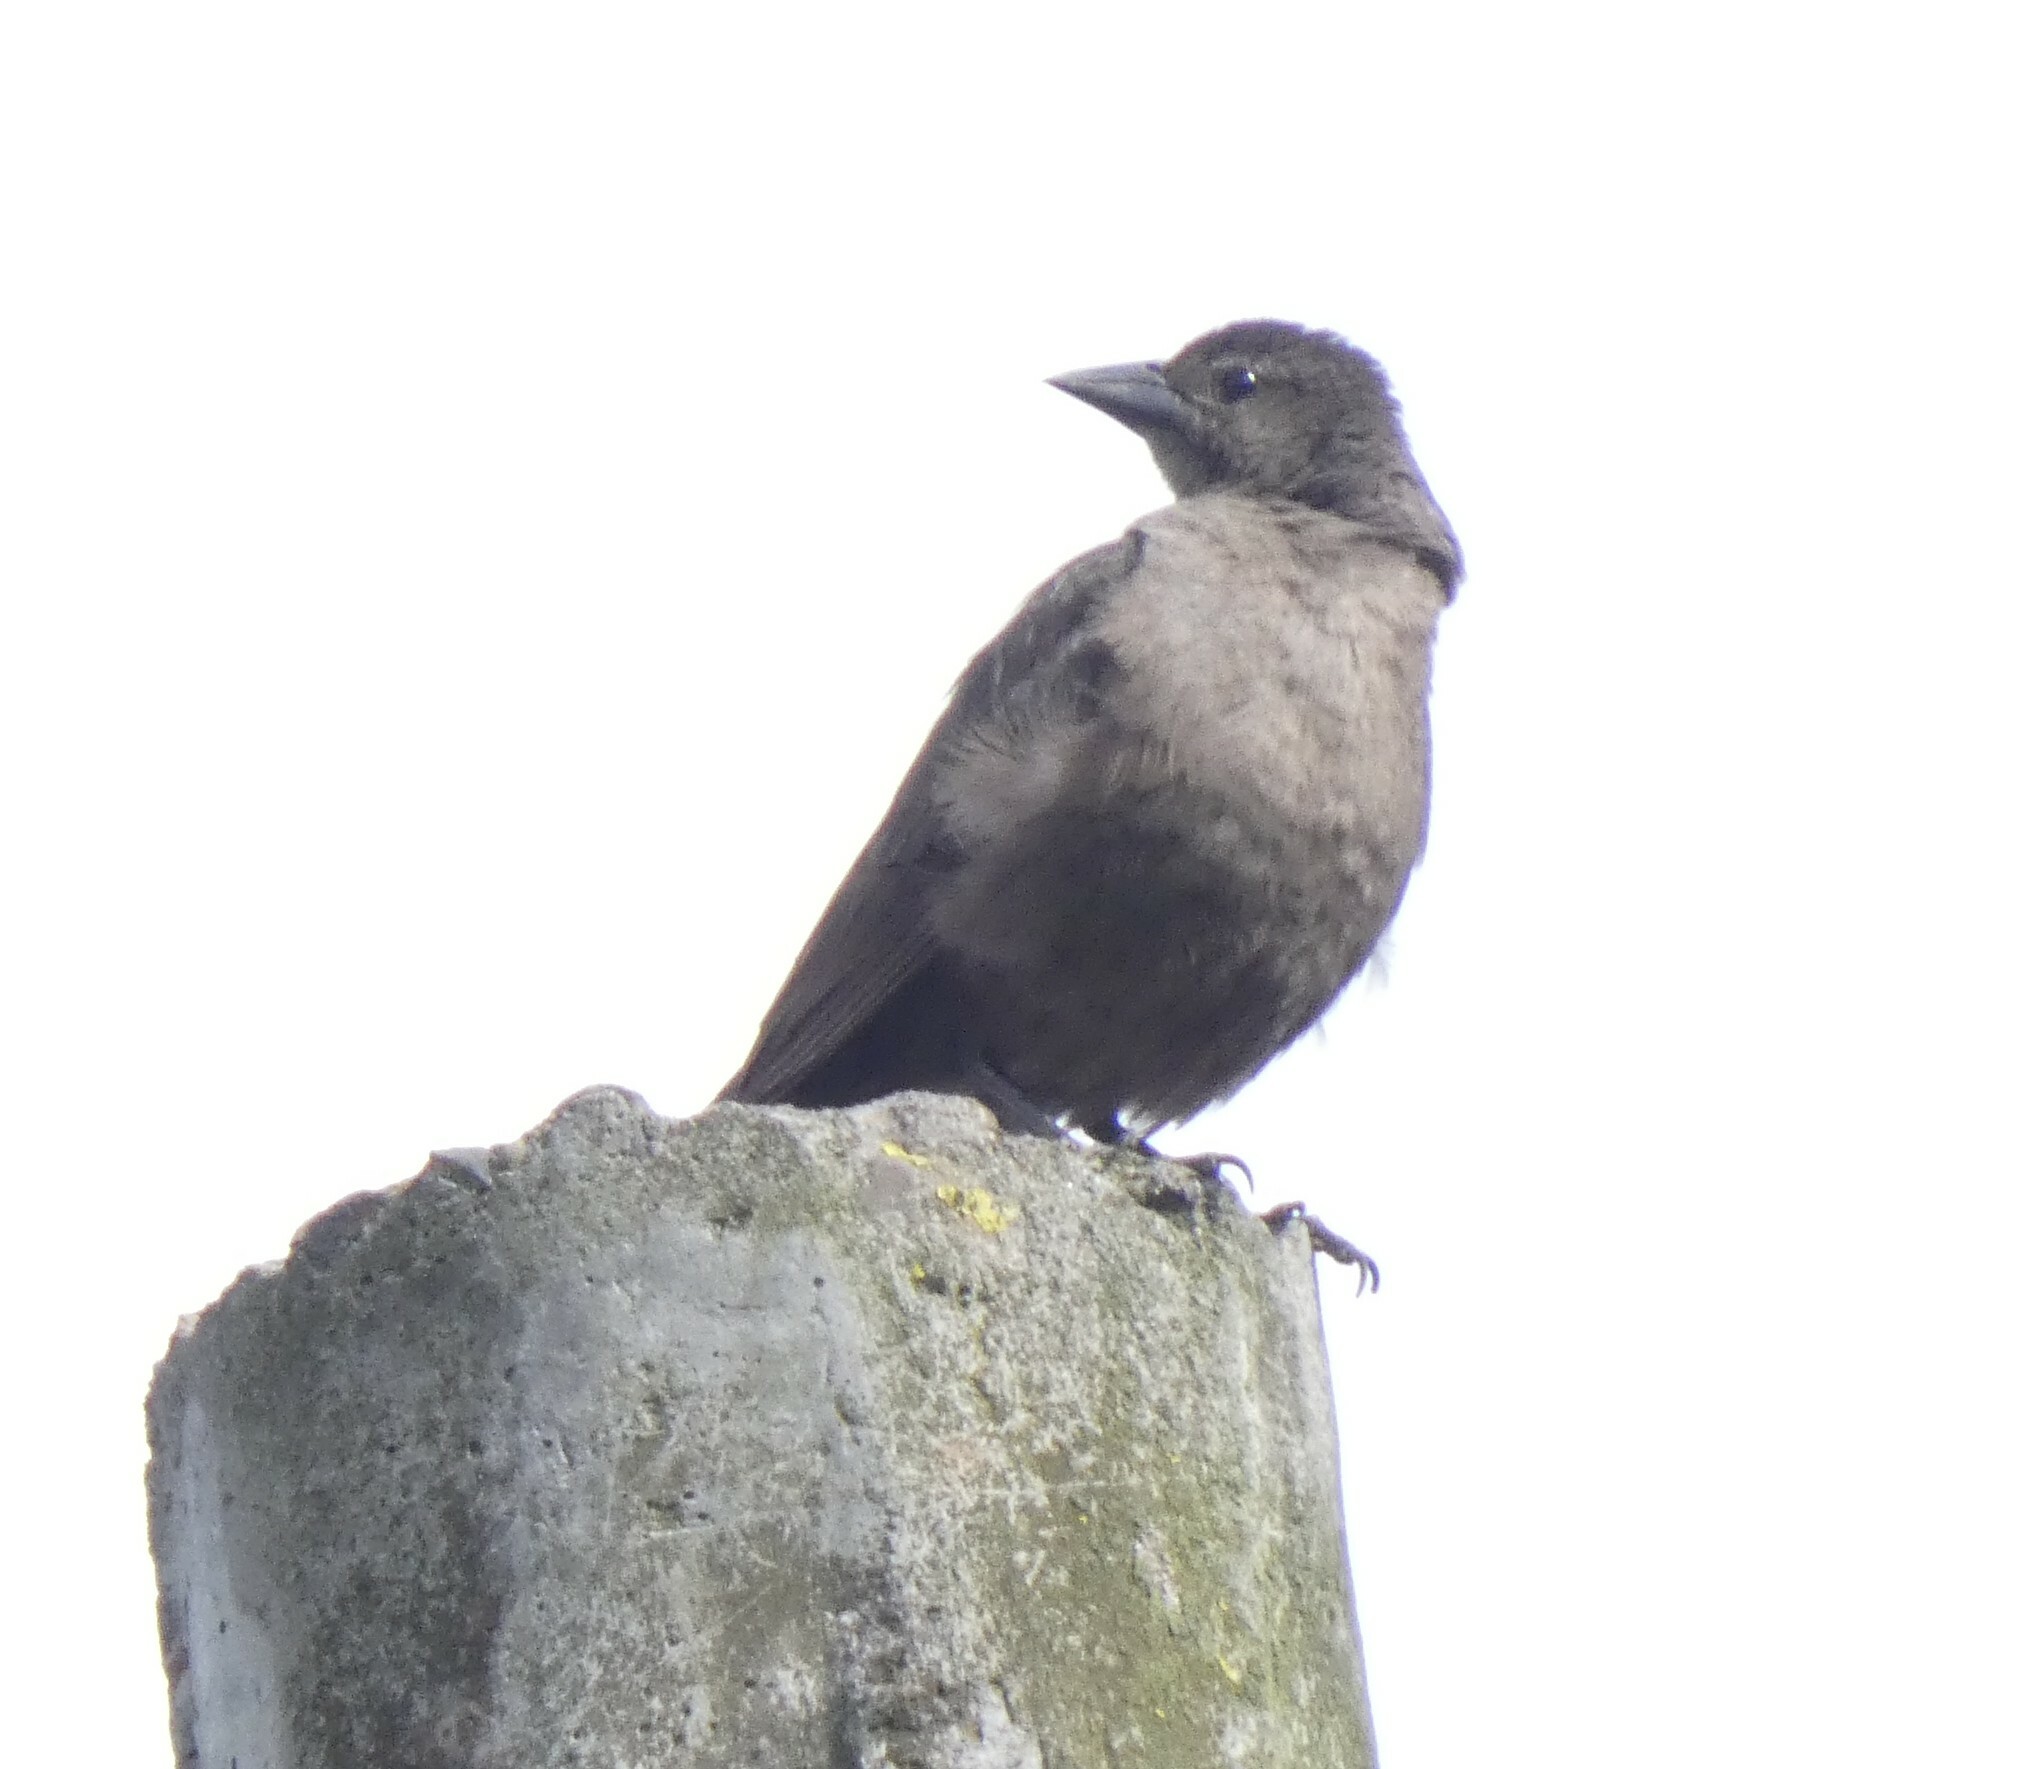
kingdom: Animalia
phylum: Chordata
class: Aves
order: Passeriformes
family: Icteridae
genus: Molothrus
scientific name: Molothrus bonariensis
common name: Shiny cowbird
